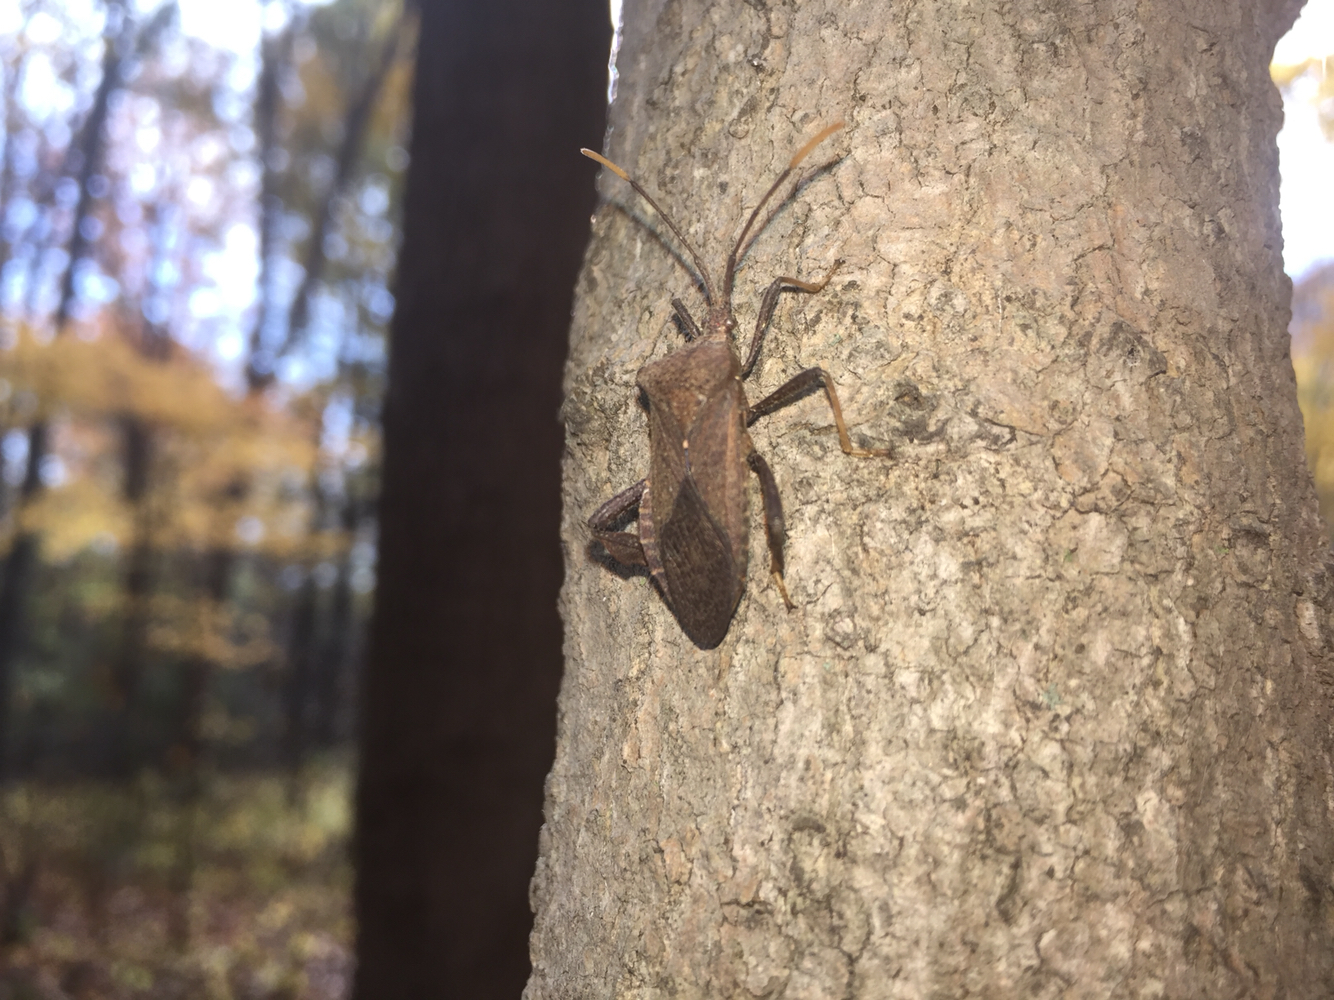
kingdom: Animalia
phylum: Arthropoda
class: Insecta
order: Hemiptera
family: Coreidae
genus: Acanthocephala
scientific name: Acanthocephala terminalis
